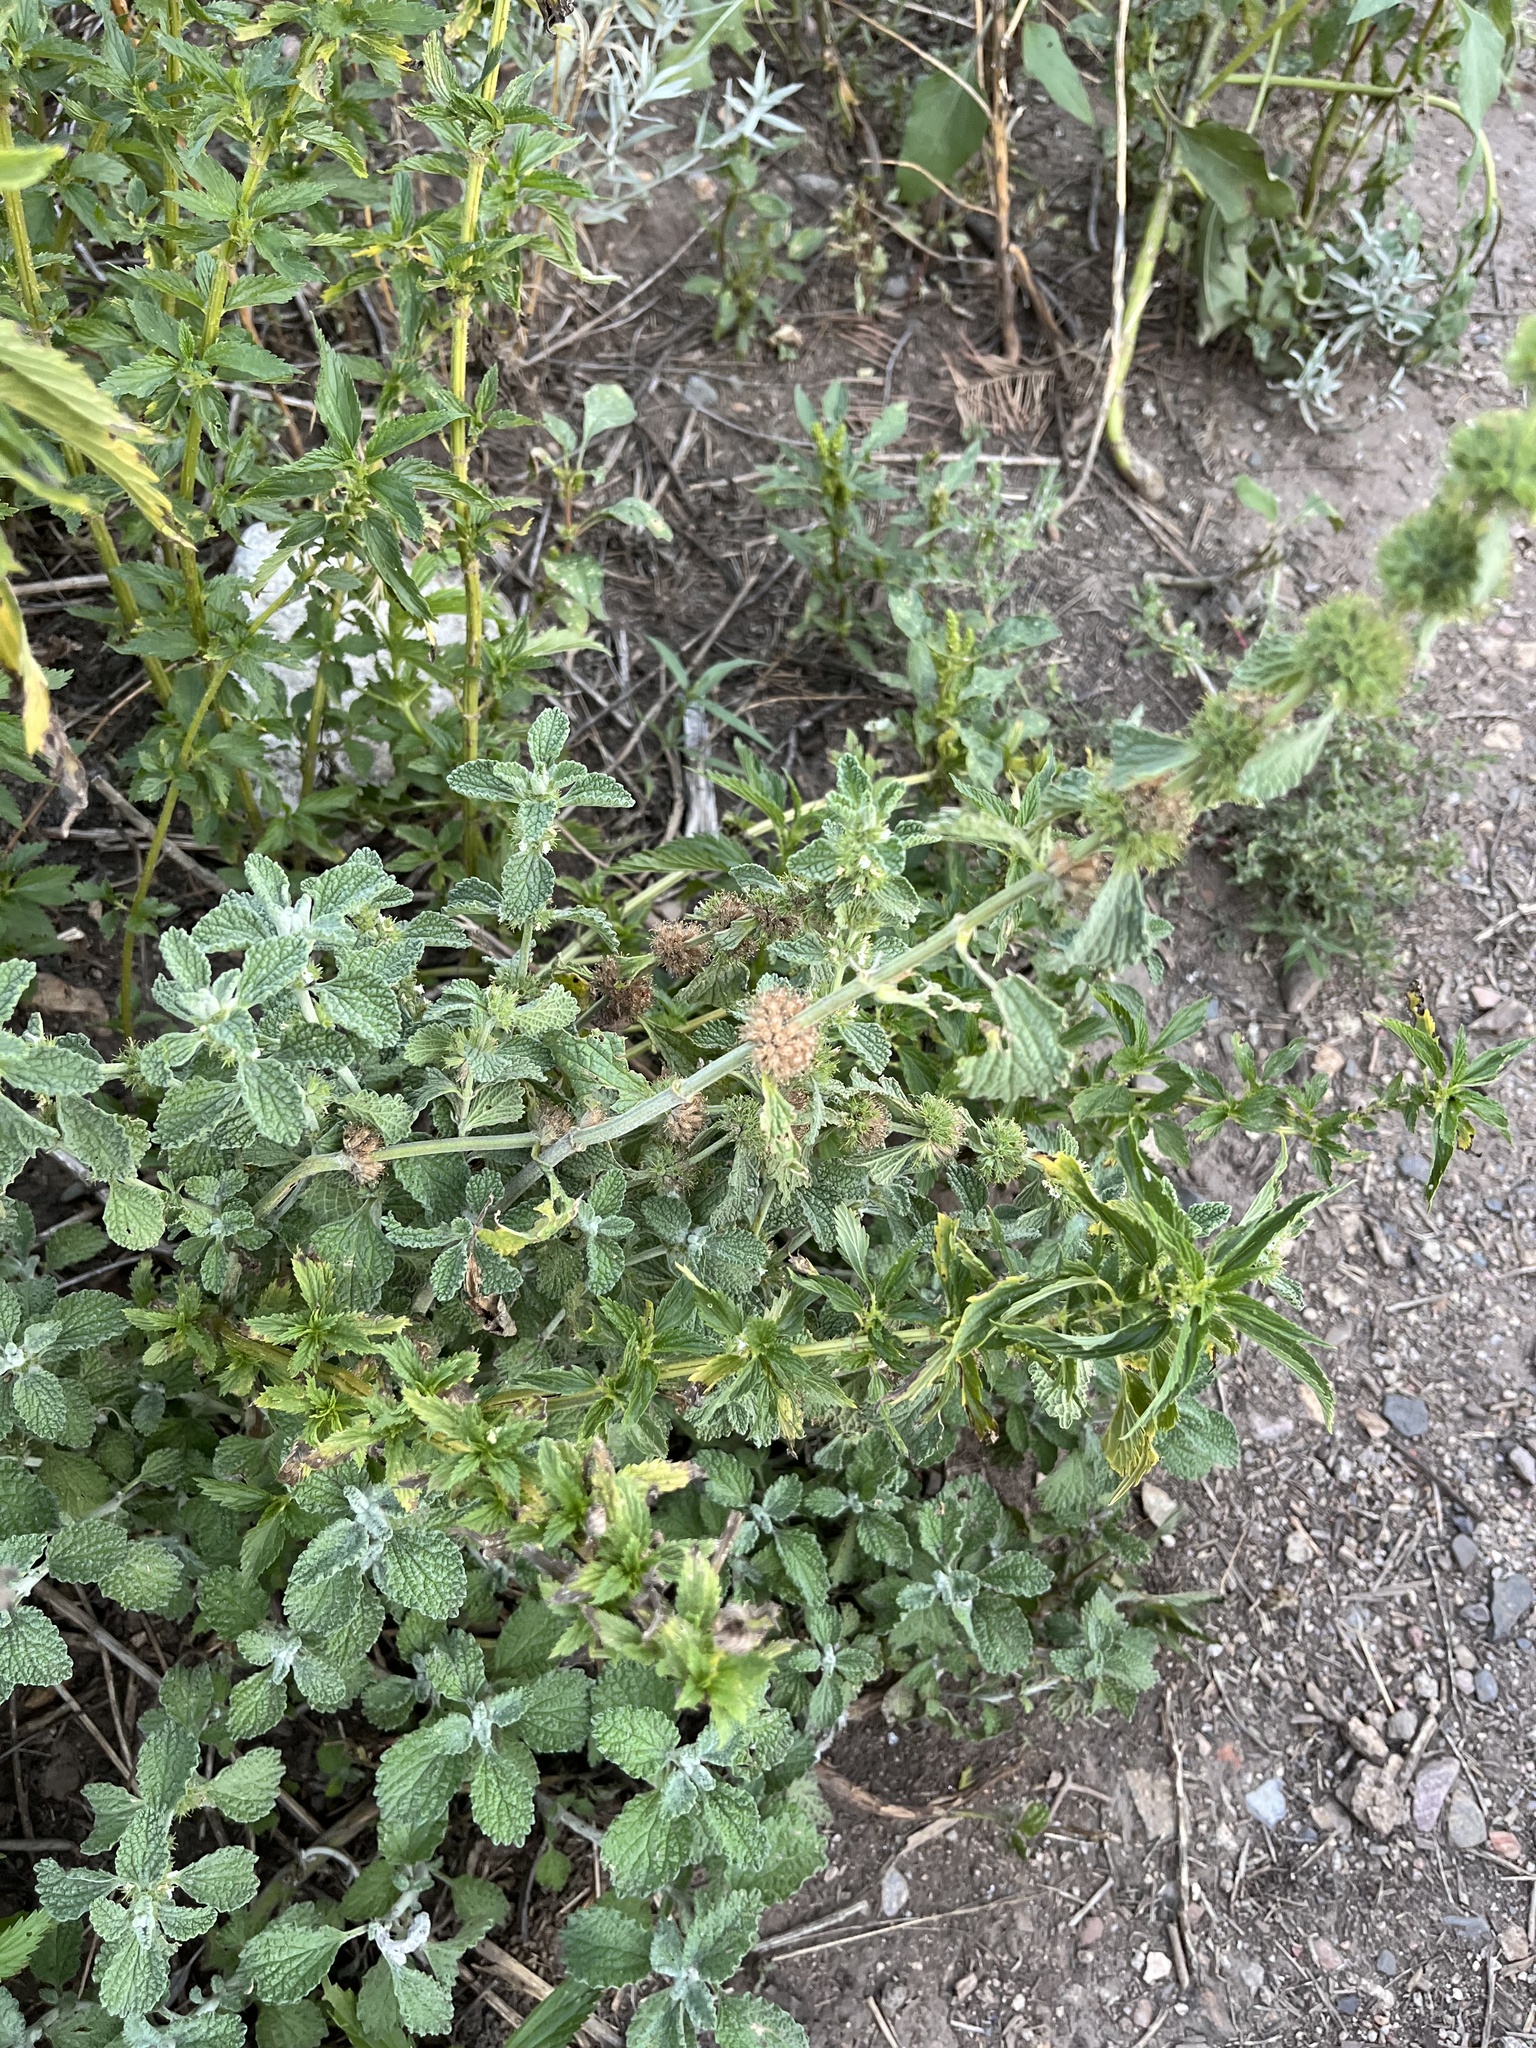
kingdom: Plantae
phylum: Tracheophyta
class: Magnoliopsida
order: Lamiales
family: Lamiaceae
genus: Marrubium
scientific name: Marrubium vulgare
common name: Horehound
